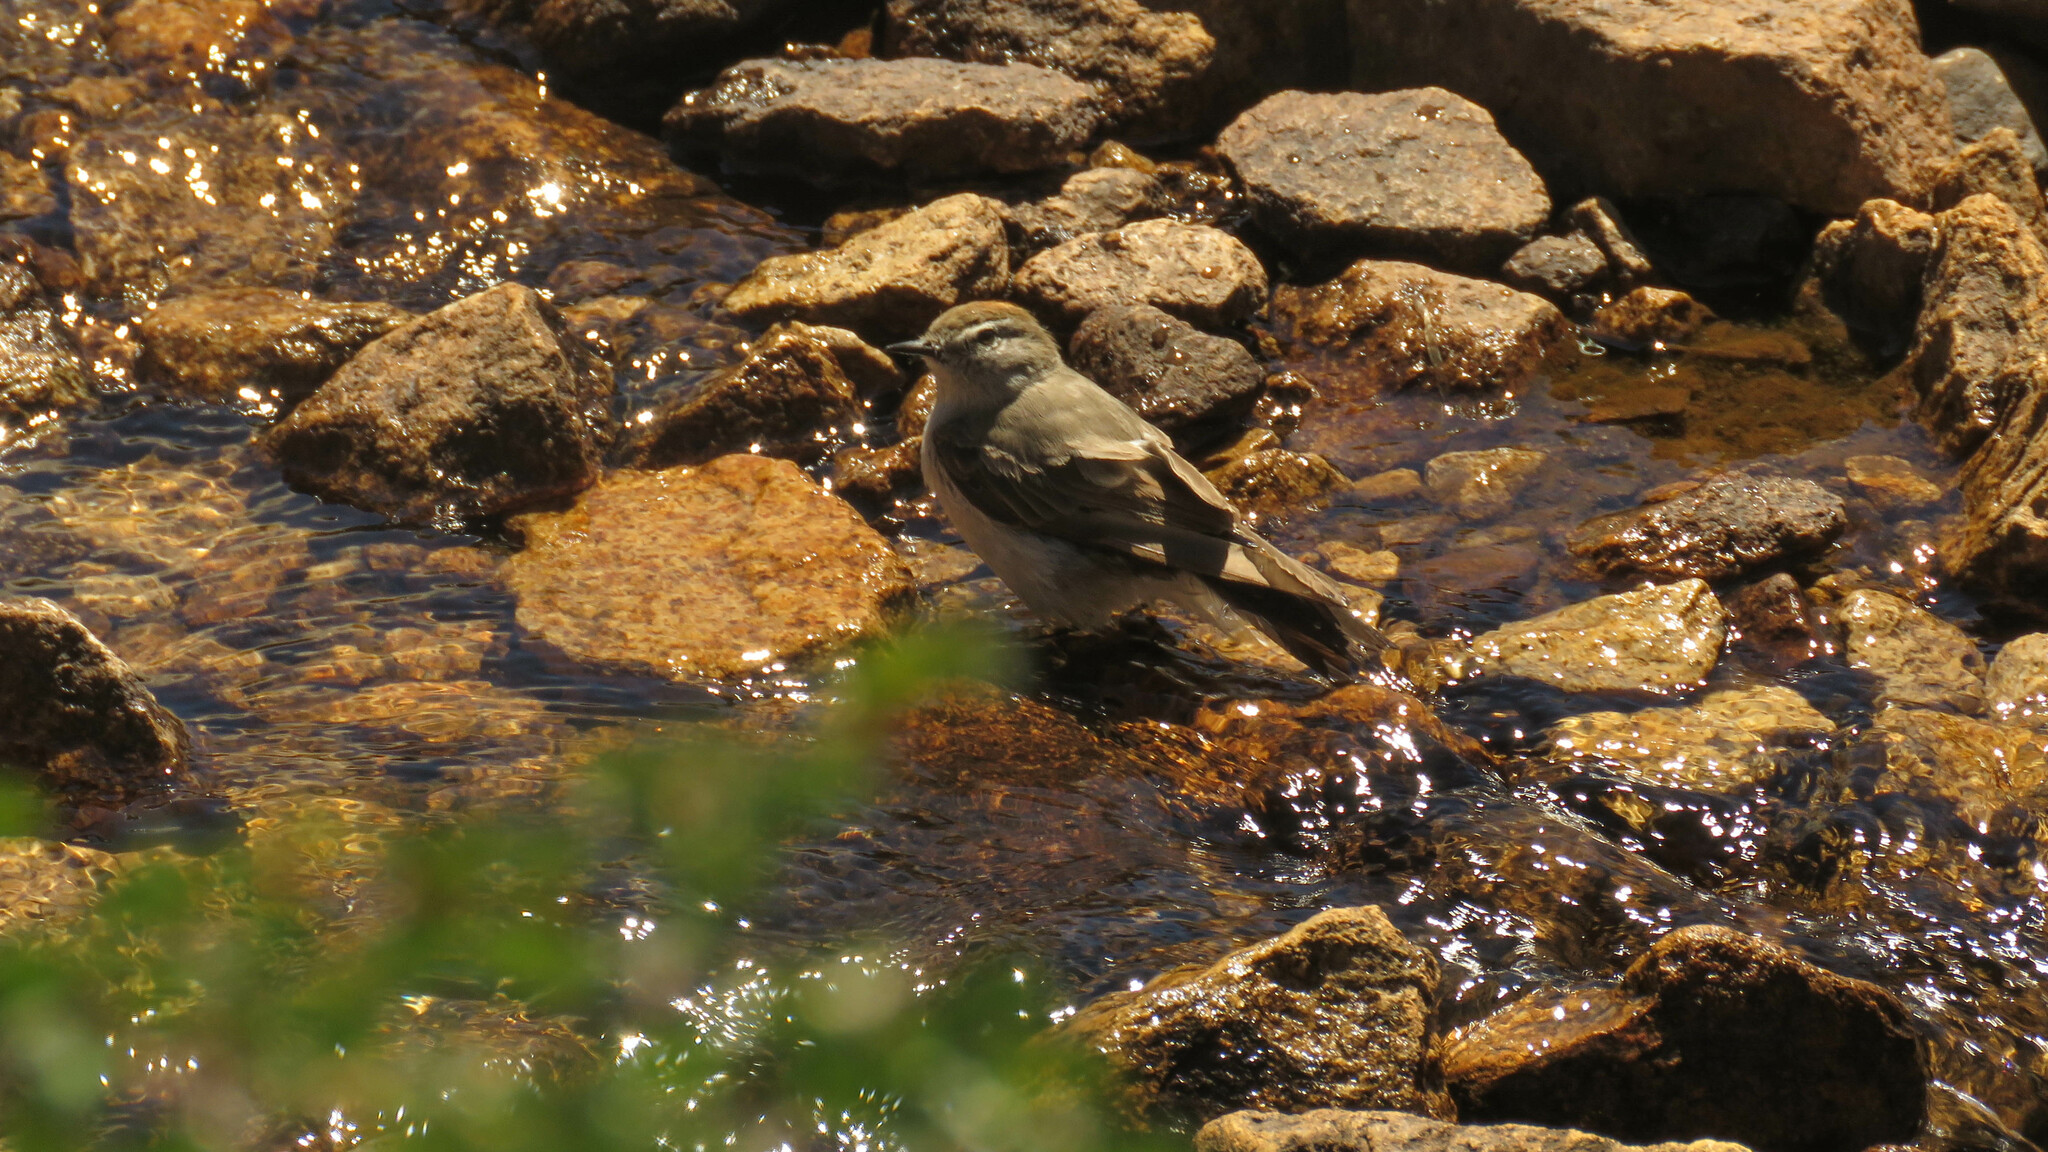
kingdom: Animalia
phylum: Chordata
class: Aves
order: Passeriformes
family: Tyrannidae
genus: Muscisaxicola
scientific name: Muscisaxicola albilora
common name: White-browed ground tyrant
